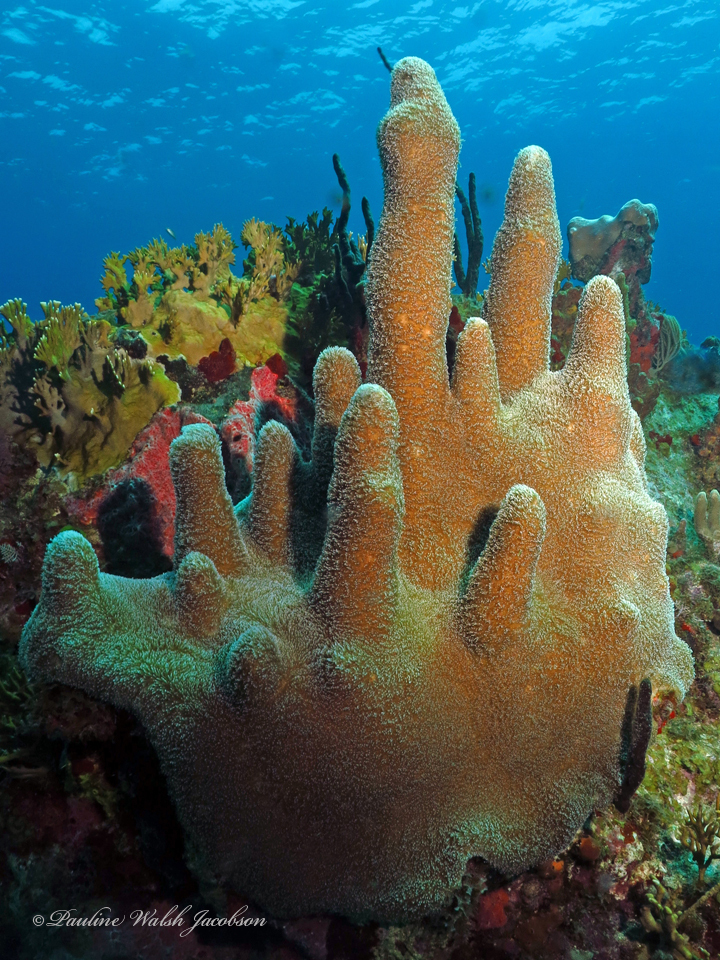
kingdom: Animalia
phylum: Cnidaria
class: Anthozoa
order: Scleractinia
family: Meandrinidae
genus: Dendrogyra
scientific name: Dendrogyra cylindrus
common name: Pillar coral
